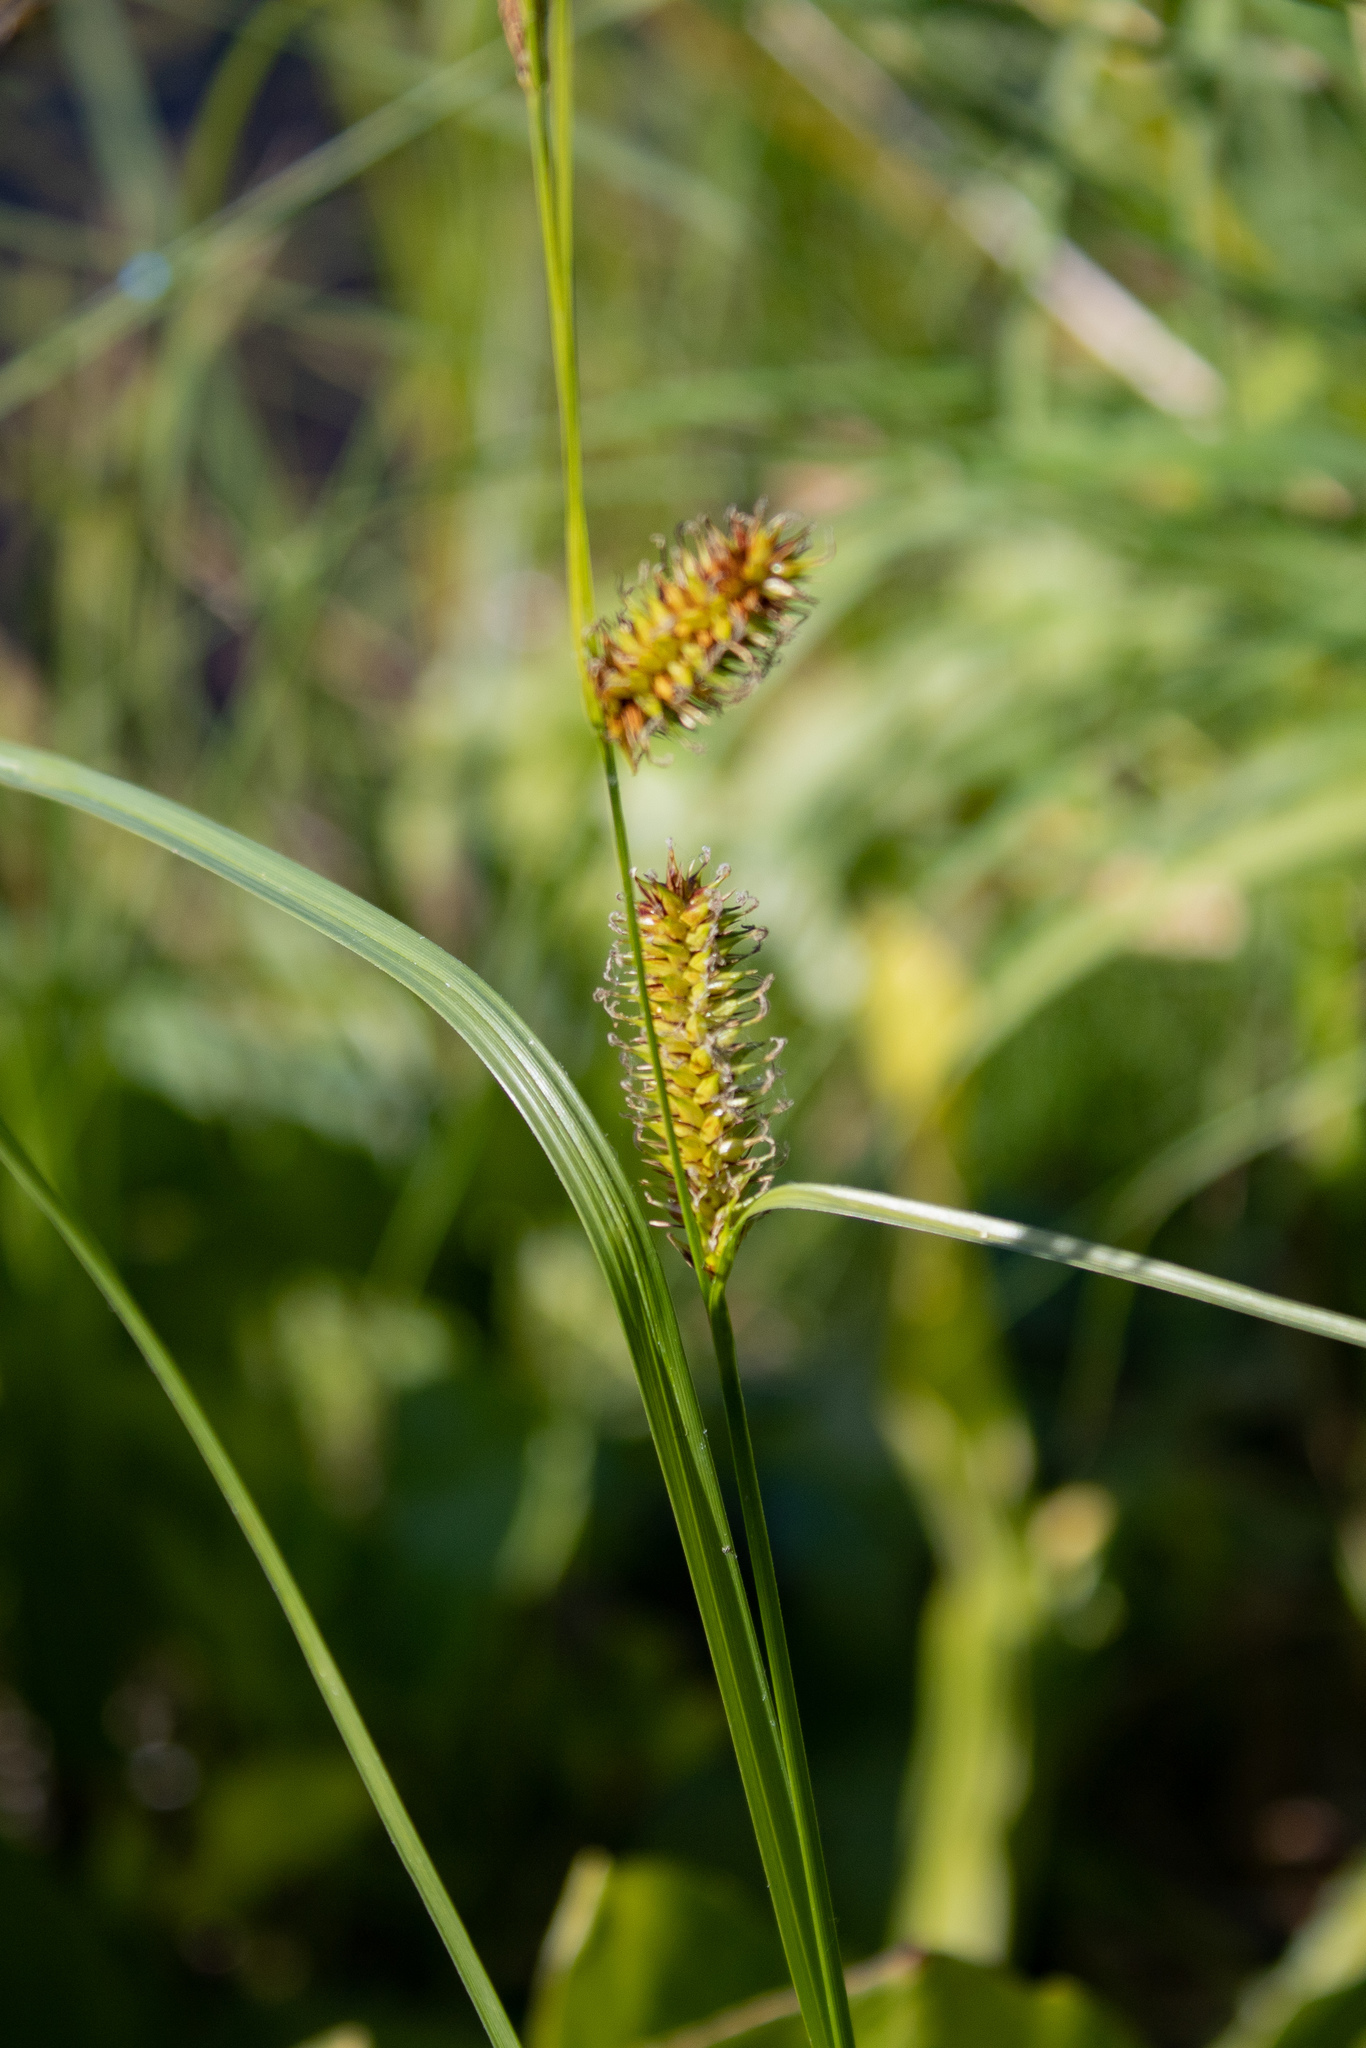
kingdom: Plantae
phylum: Tracheophyta
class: Liliopsida
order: Poales
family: Cyperaceae
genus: Carex
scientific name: Carex exsiccata
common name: Beaked sedge
